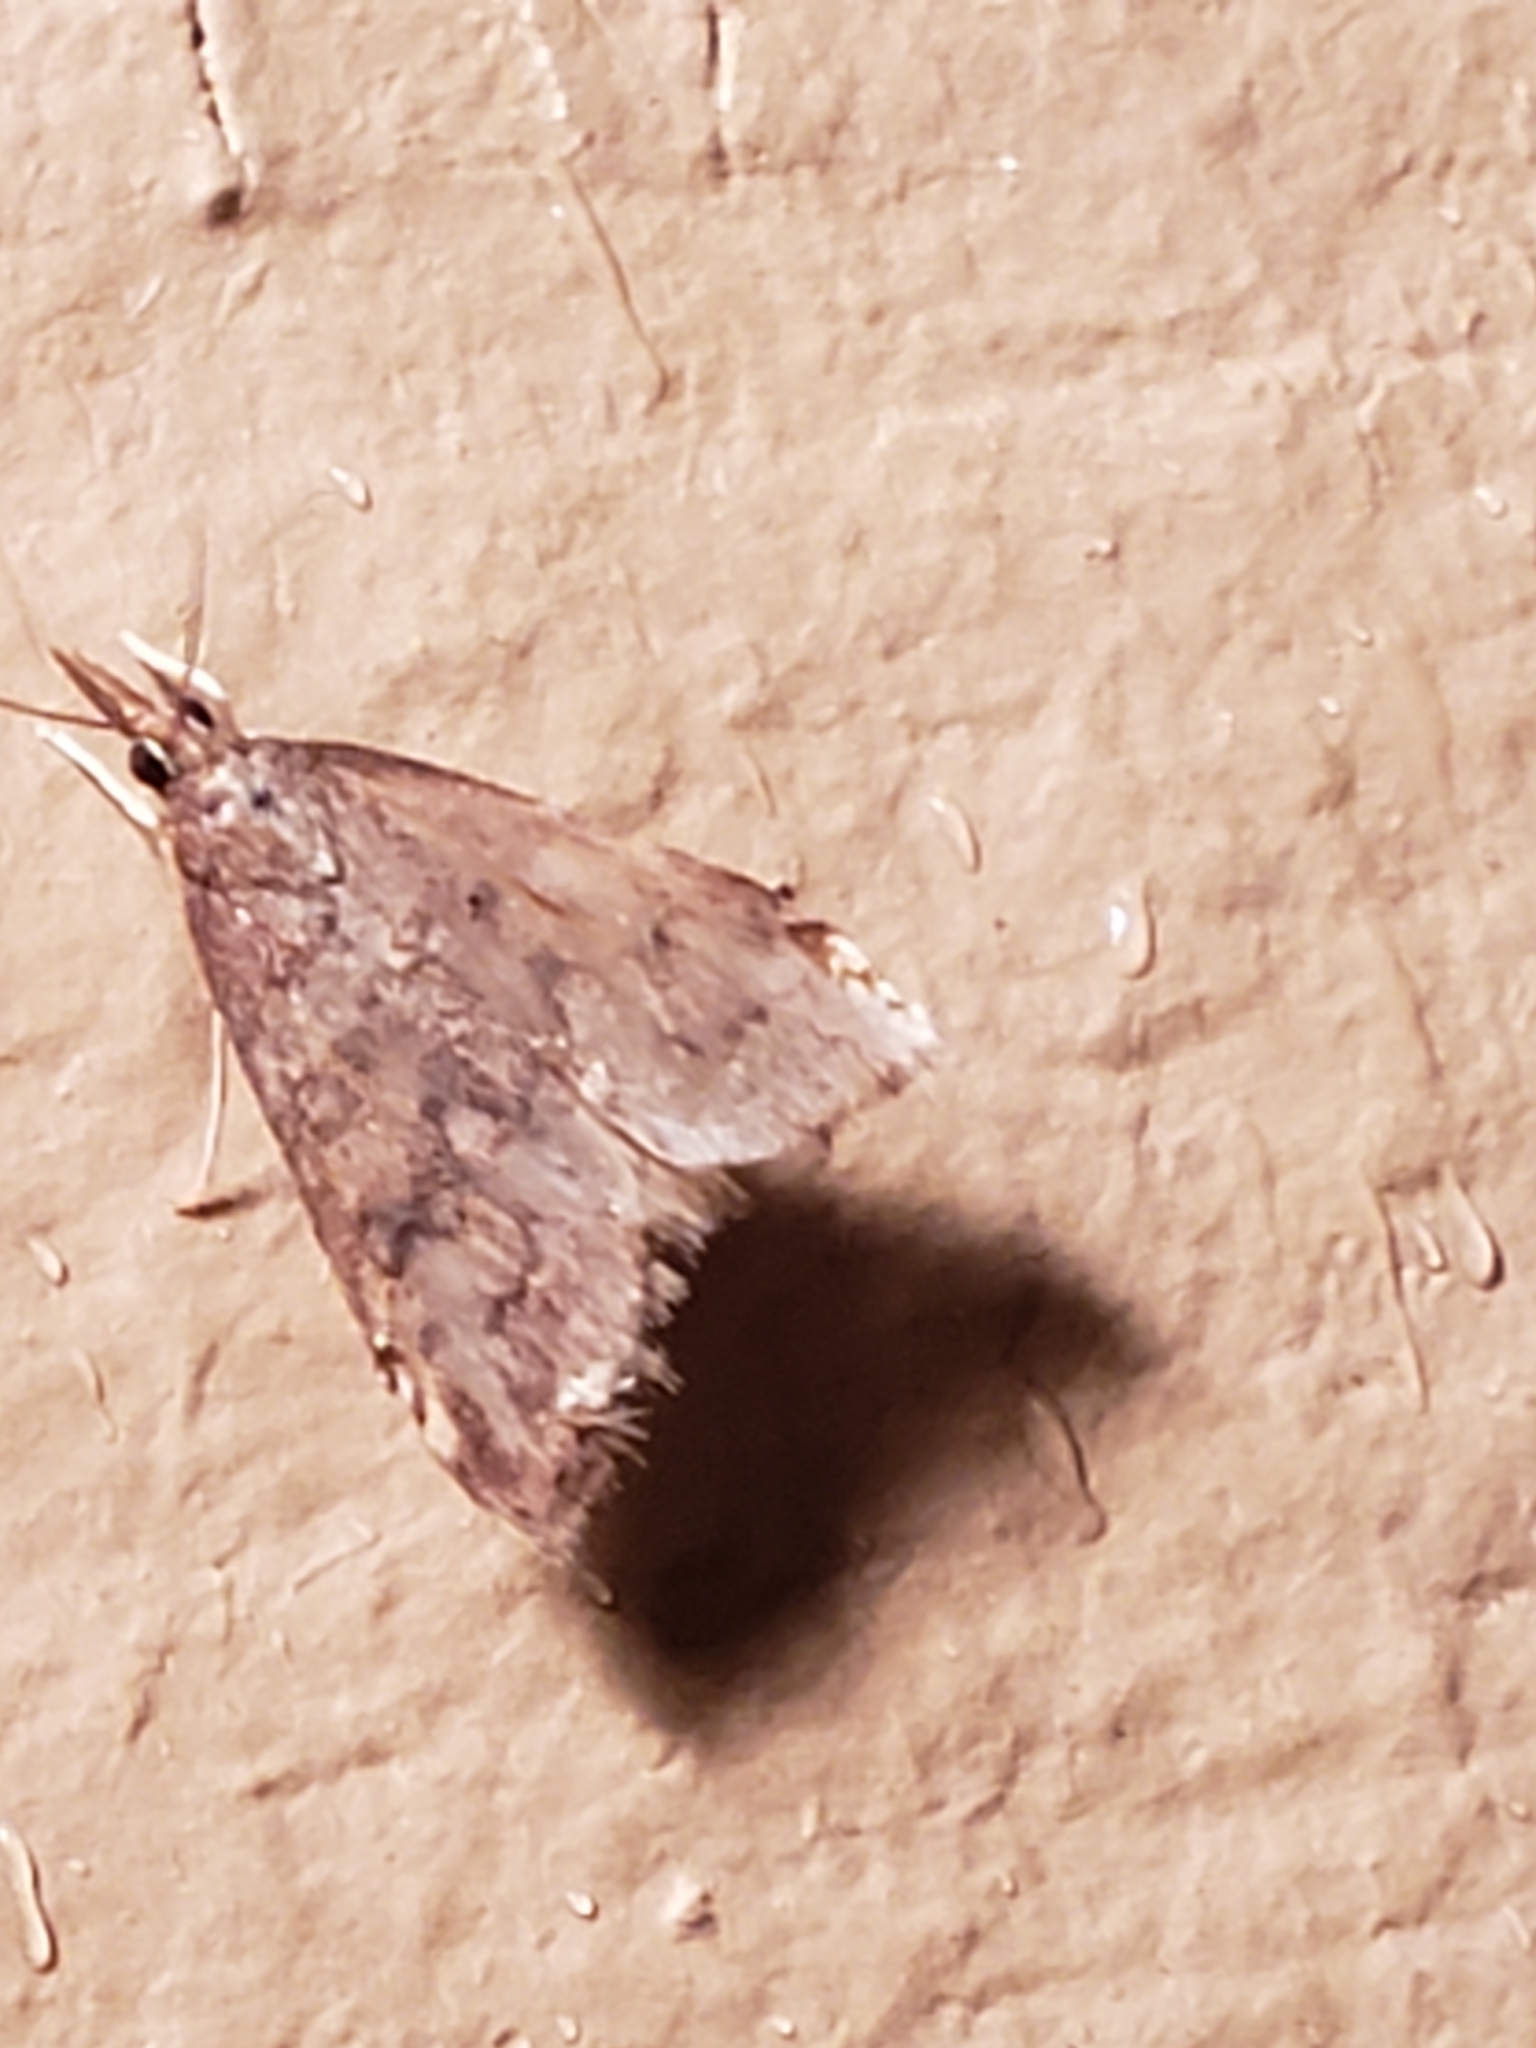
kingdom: Animalia
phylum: Arthropoda
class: Insecta
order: Lepidoptera
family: Crambidae
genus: Udea
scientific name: Udea rubigalis
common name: Celery leaftier moth
